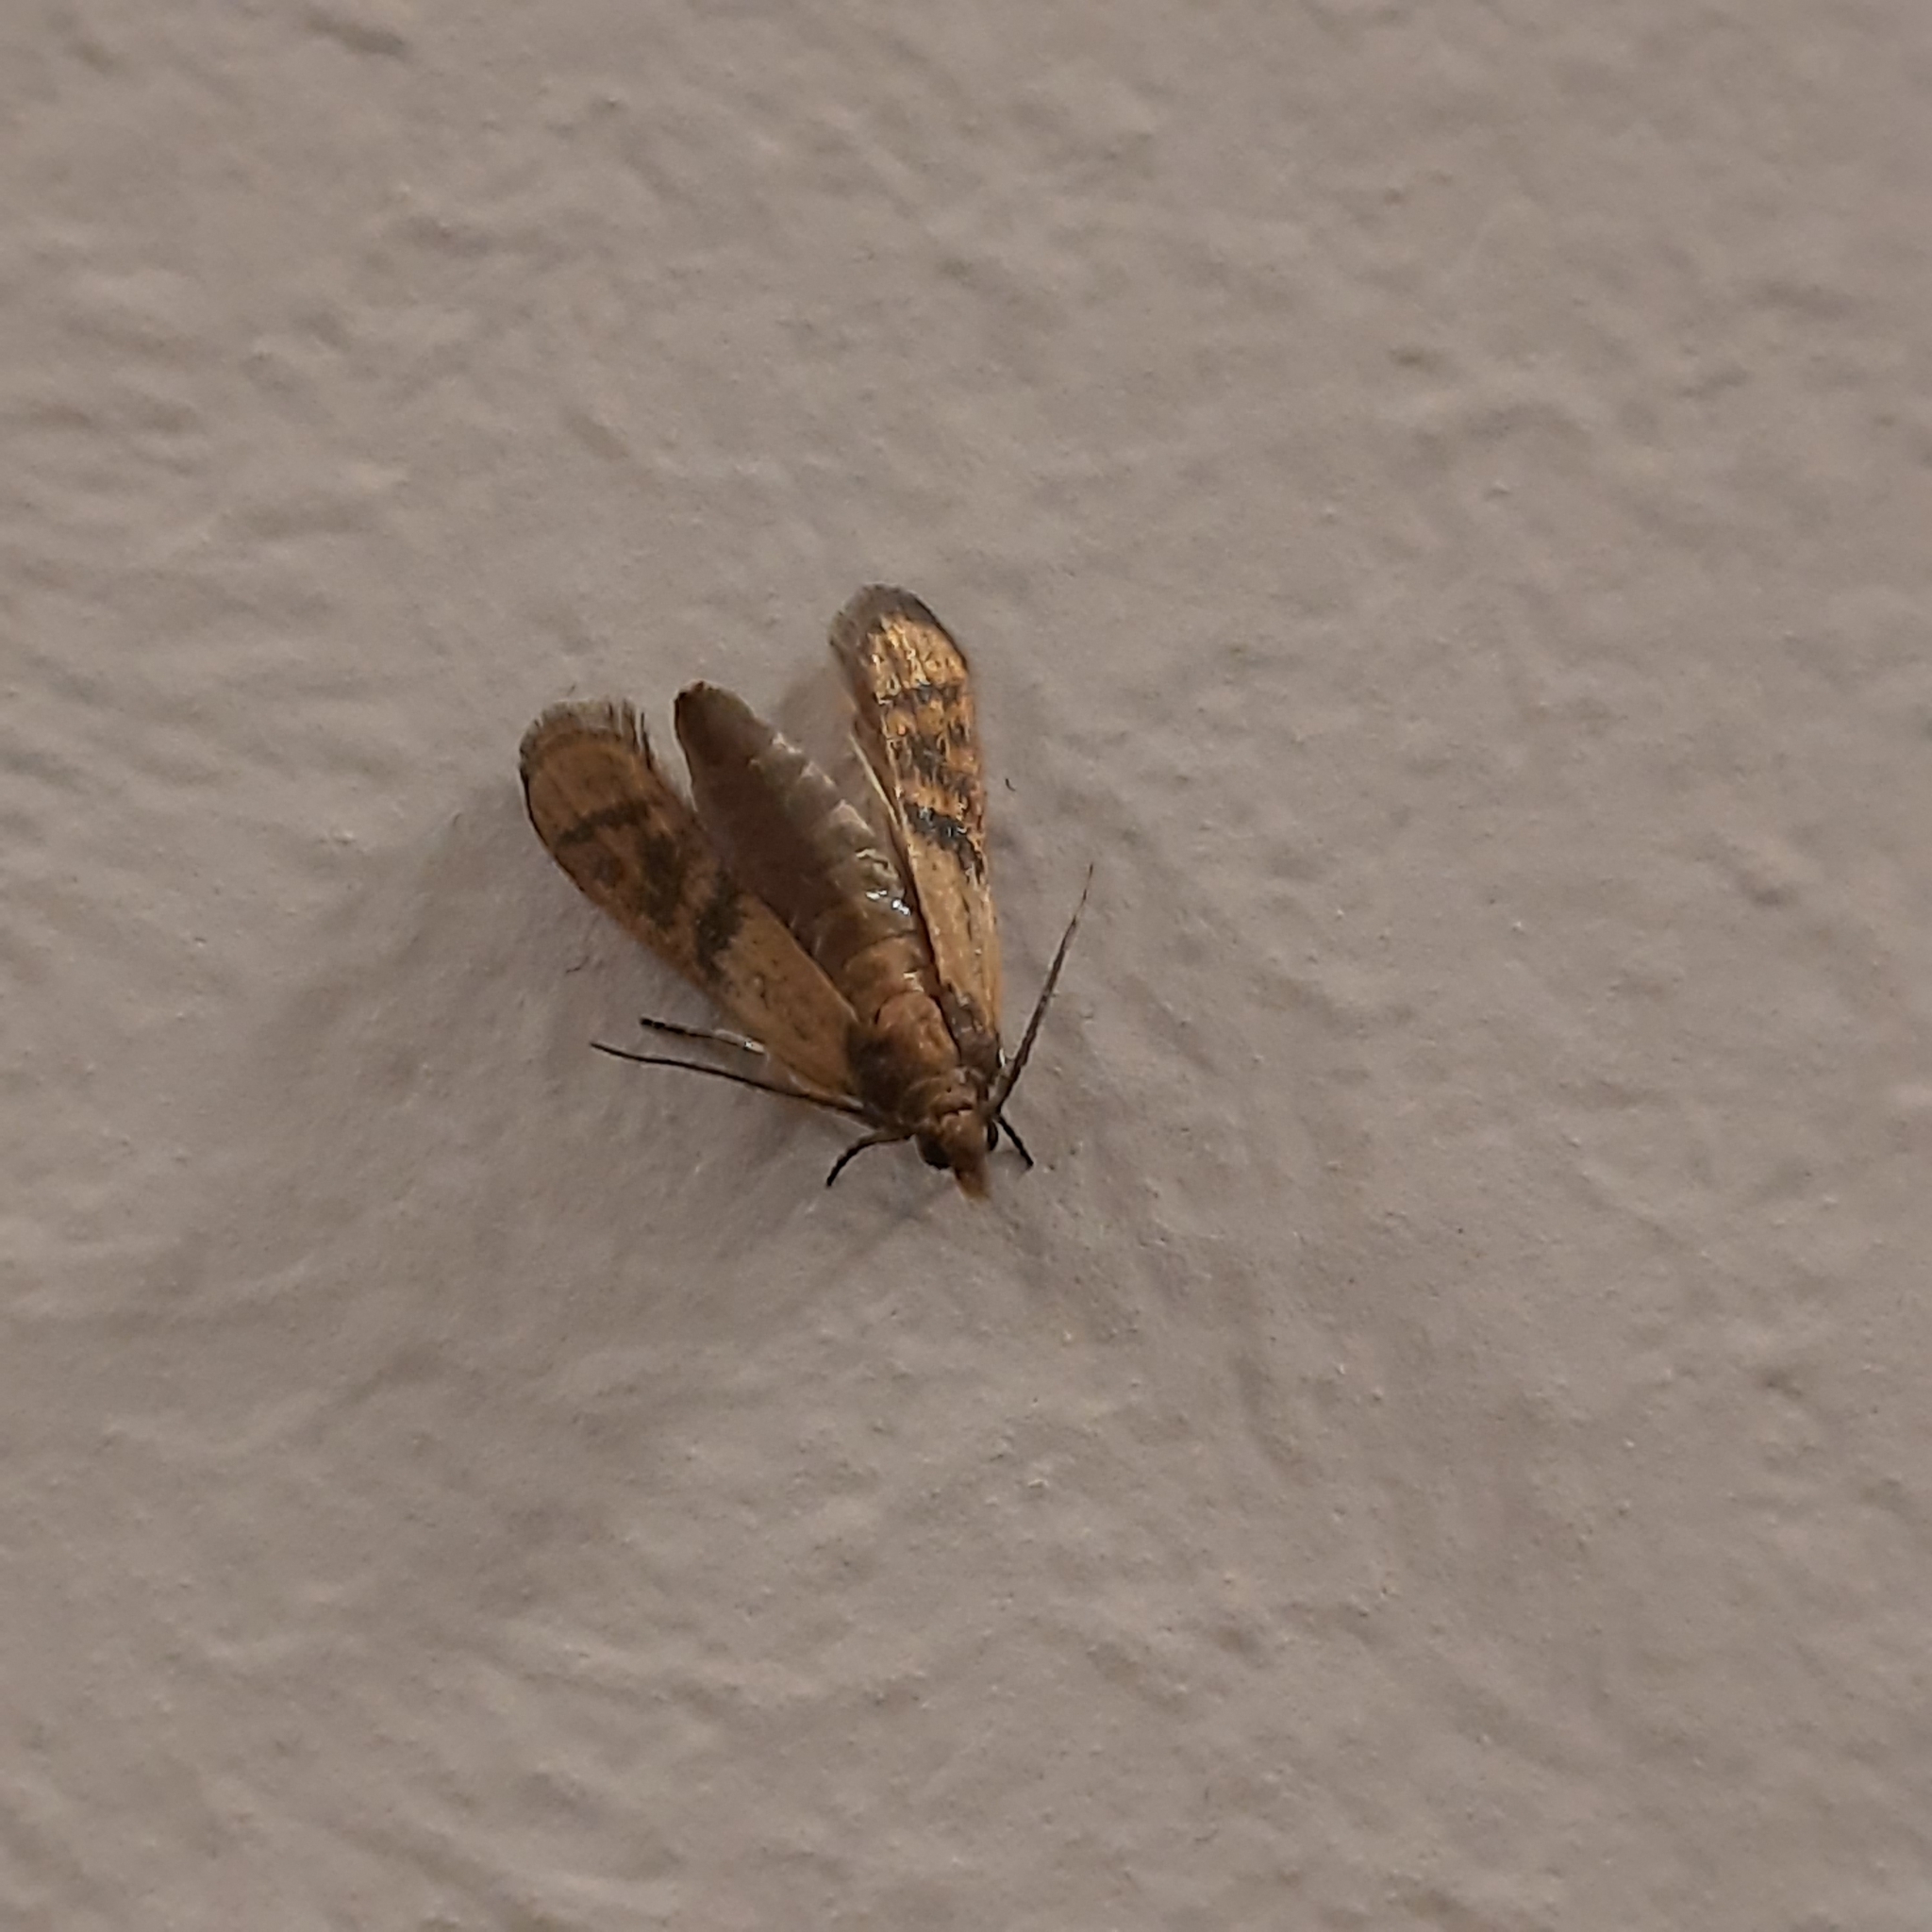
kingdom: Animalia
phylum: Arthropoda
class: Insecta
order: Lepidoptera
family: Pyralidae
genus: Plodia
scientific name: Plodia interpunctella
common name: Indian meal moth
